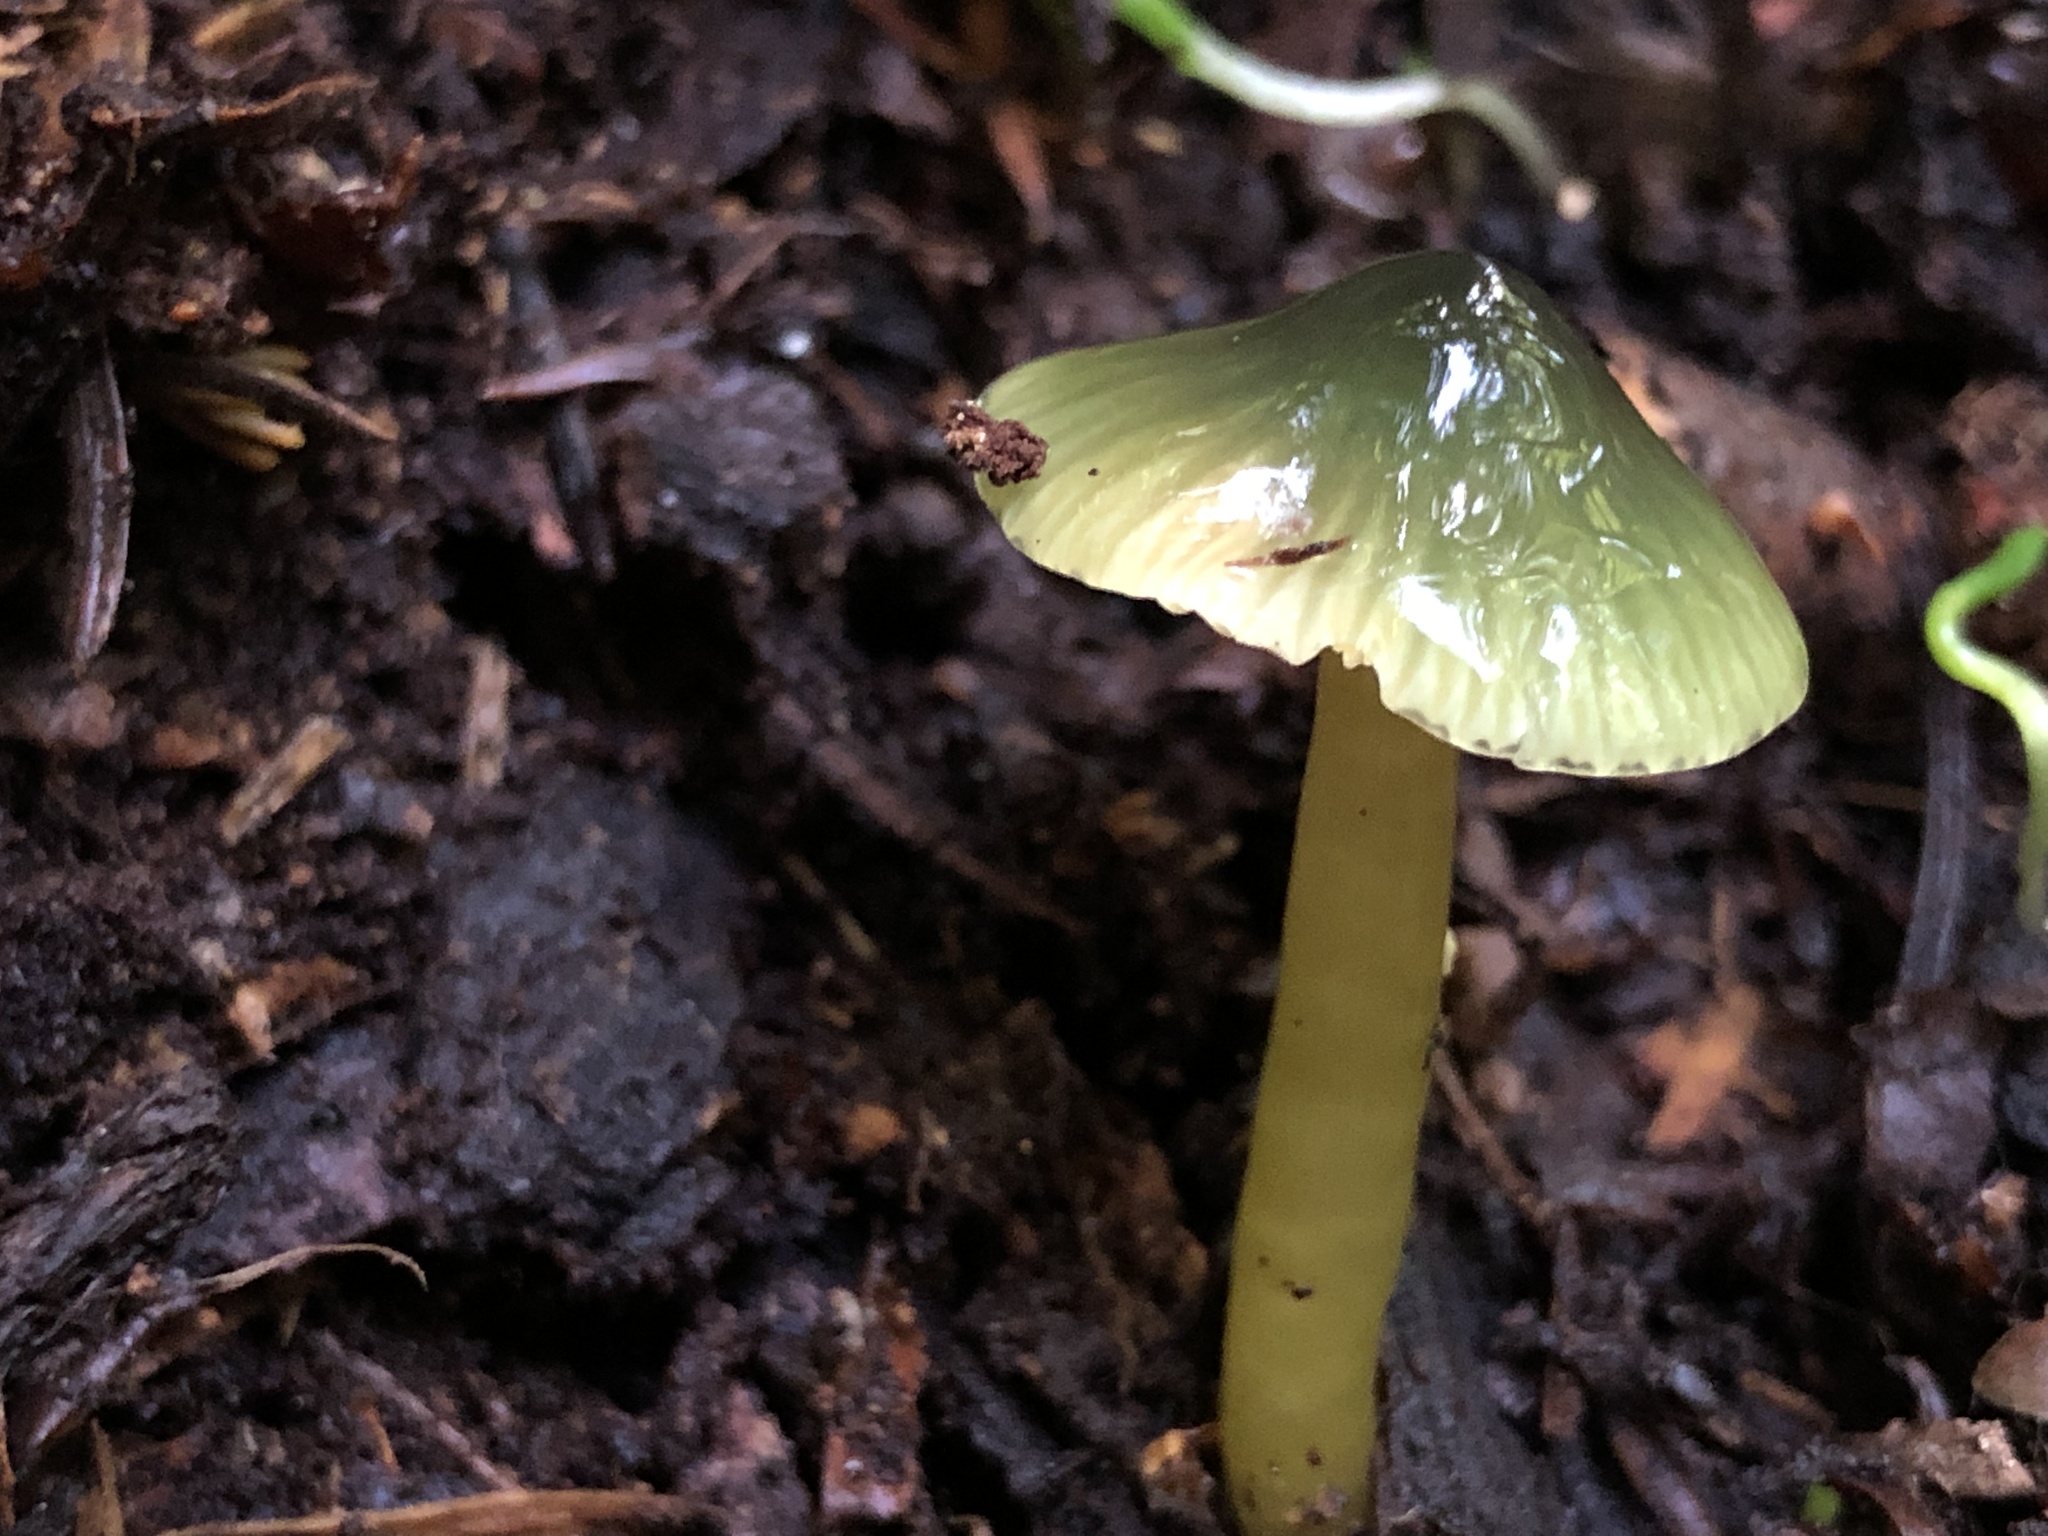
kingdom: Fungi
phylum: Basidiomycota
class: Agaricomycetes
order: Agaricales
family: Hygrophoraceae
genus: Gliophorus
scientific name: Gliophorus psittacinus
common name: Parrot wax-cap
